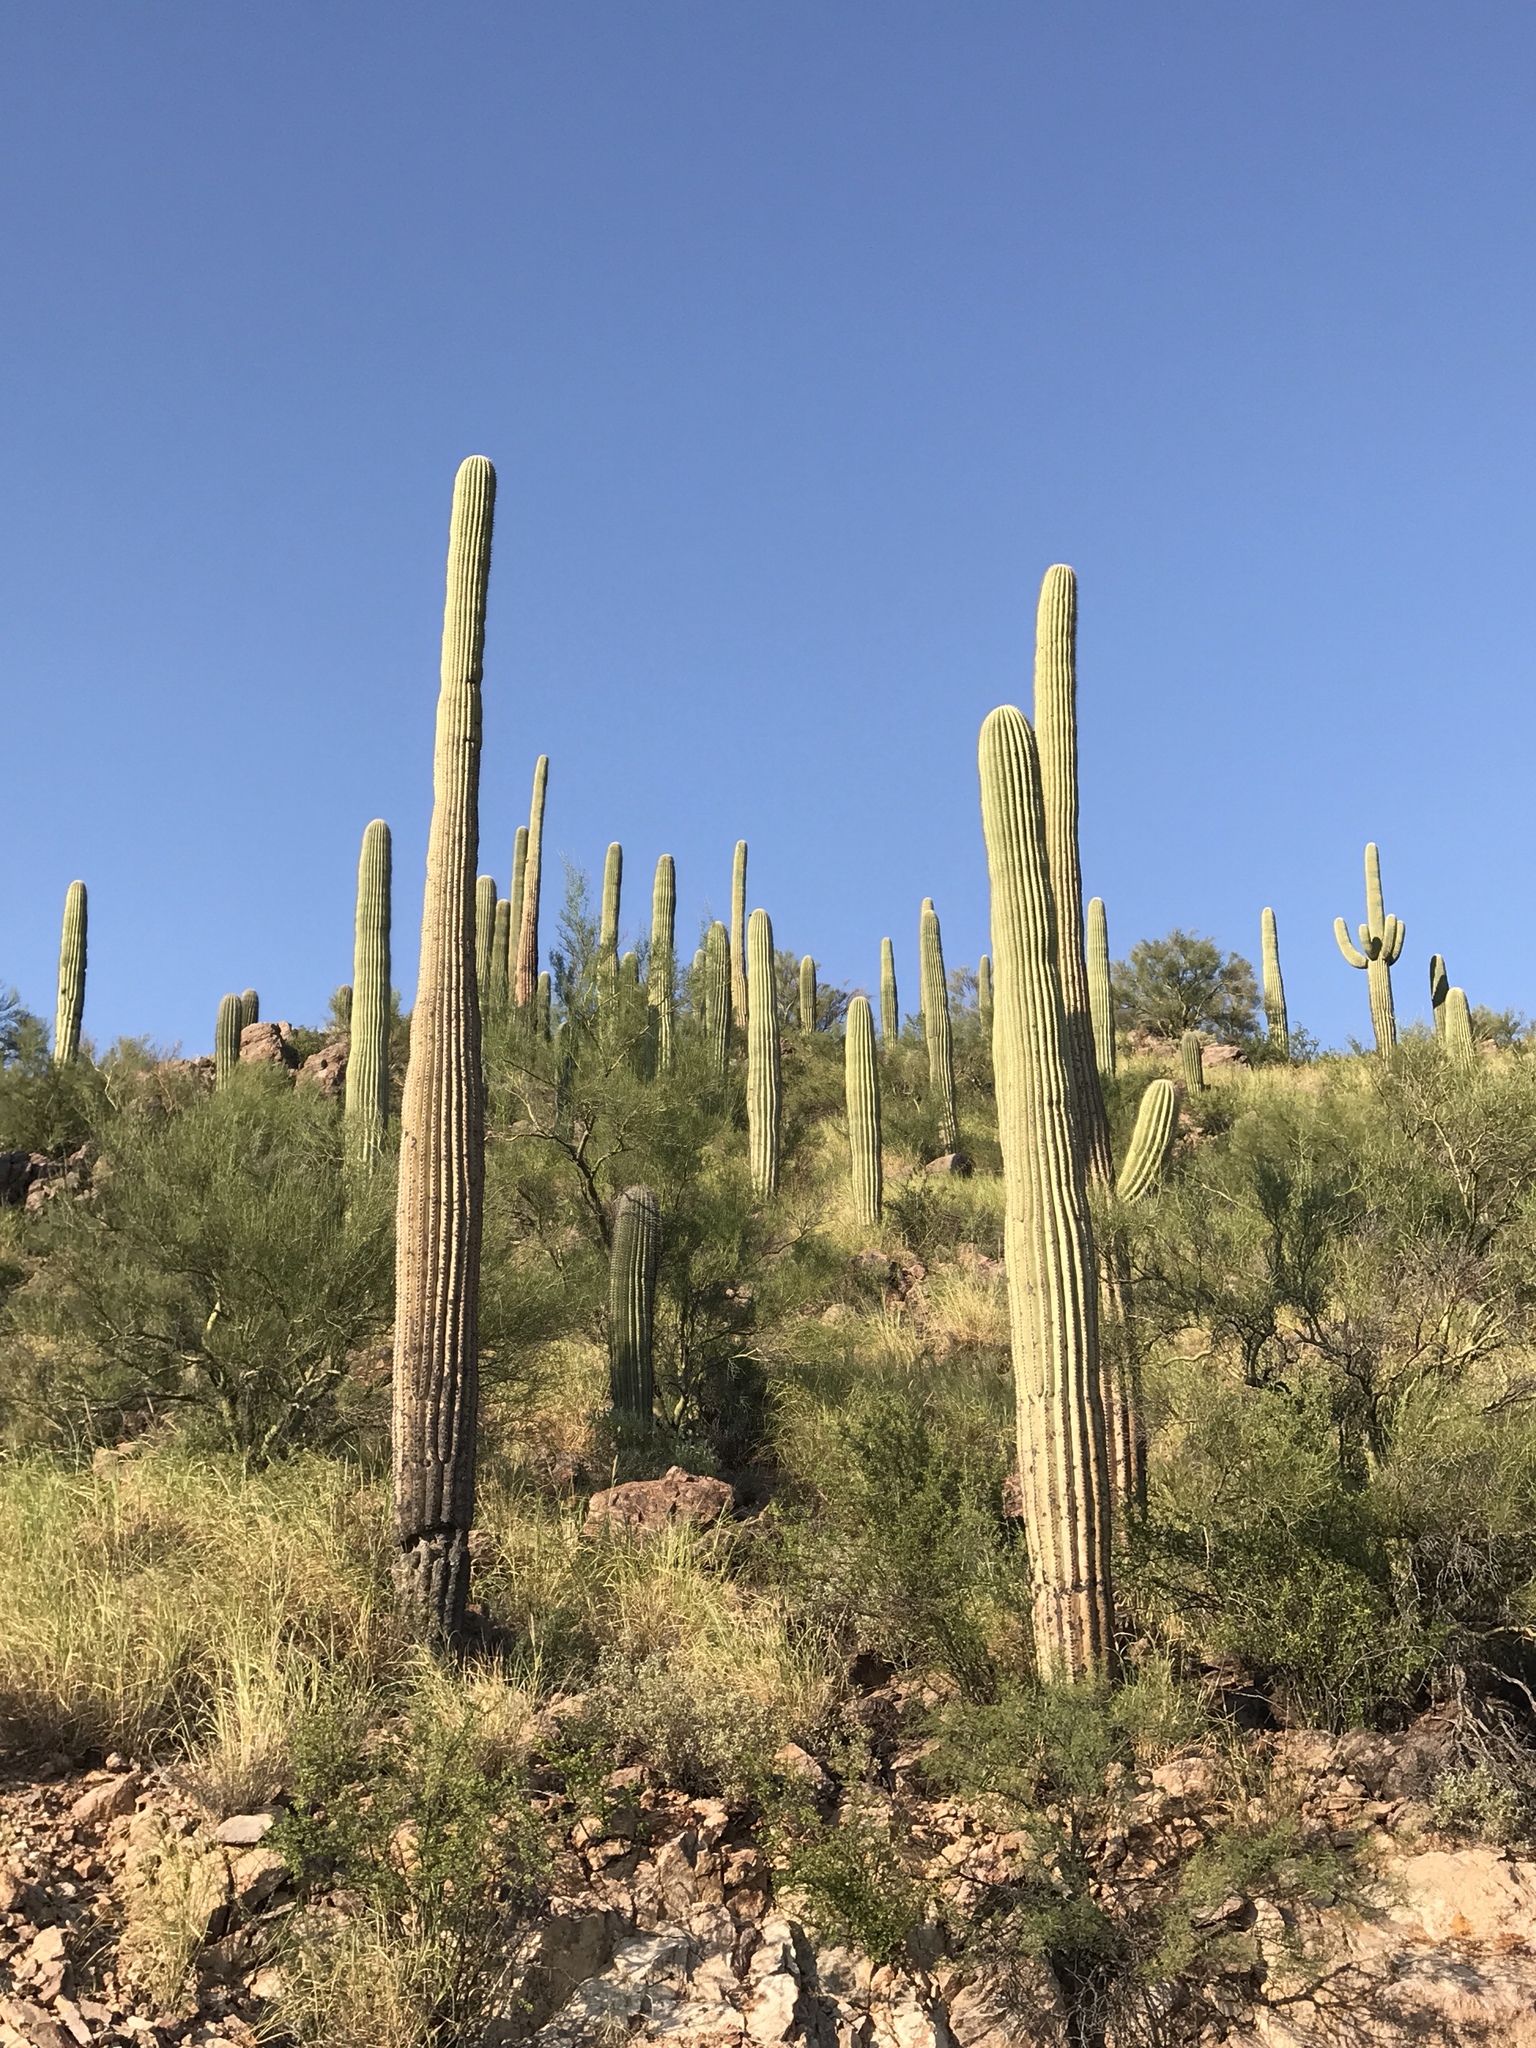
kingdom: Plantae
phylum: Tracheophyta
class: Magnoliopsida
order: Caryophyllales
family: Cactaceae
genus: Carnegiea
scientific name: Carnegiea gigantea
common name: Saguaro
